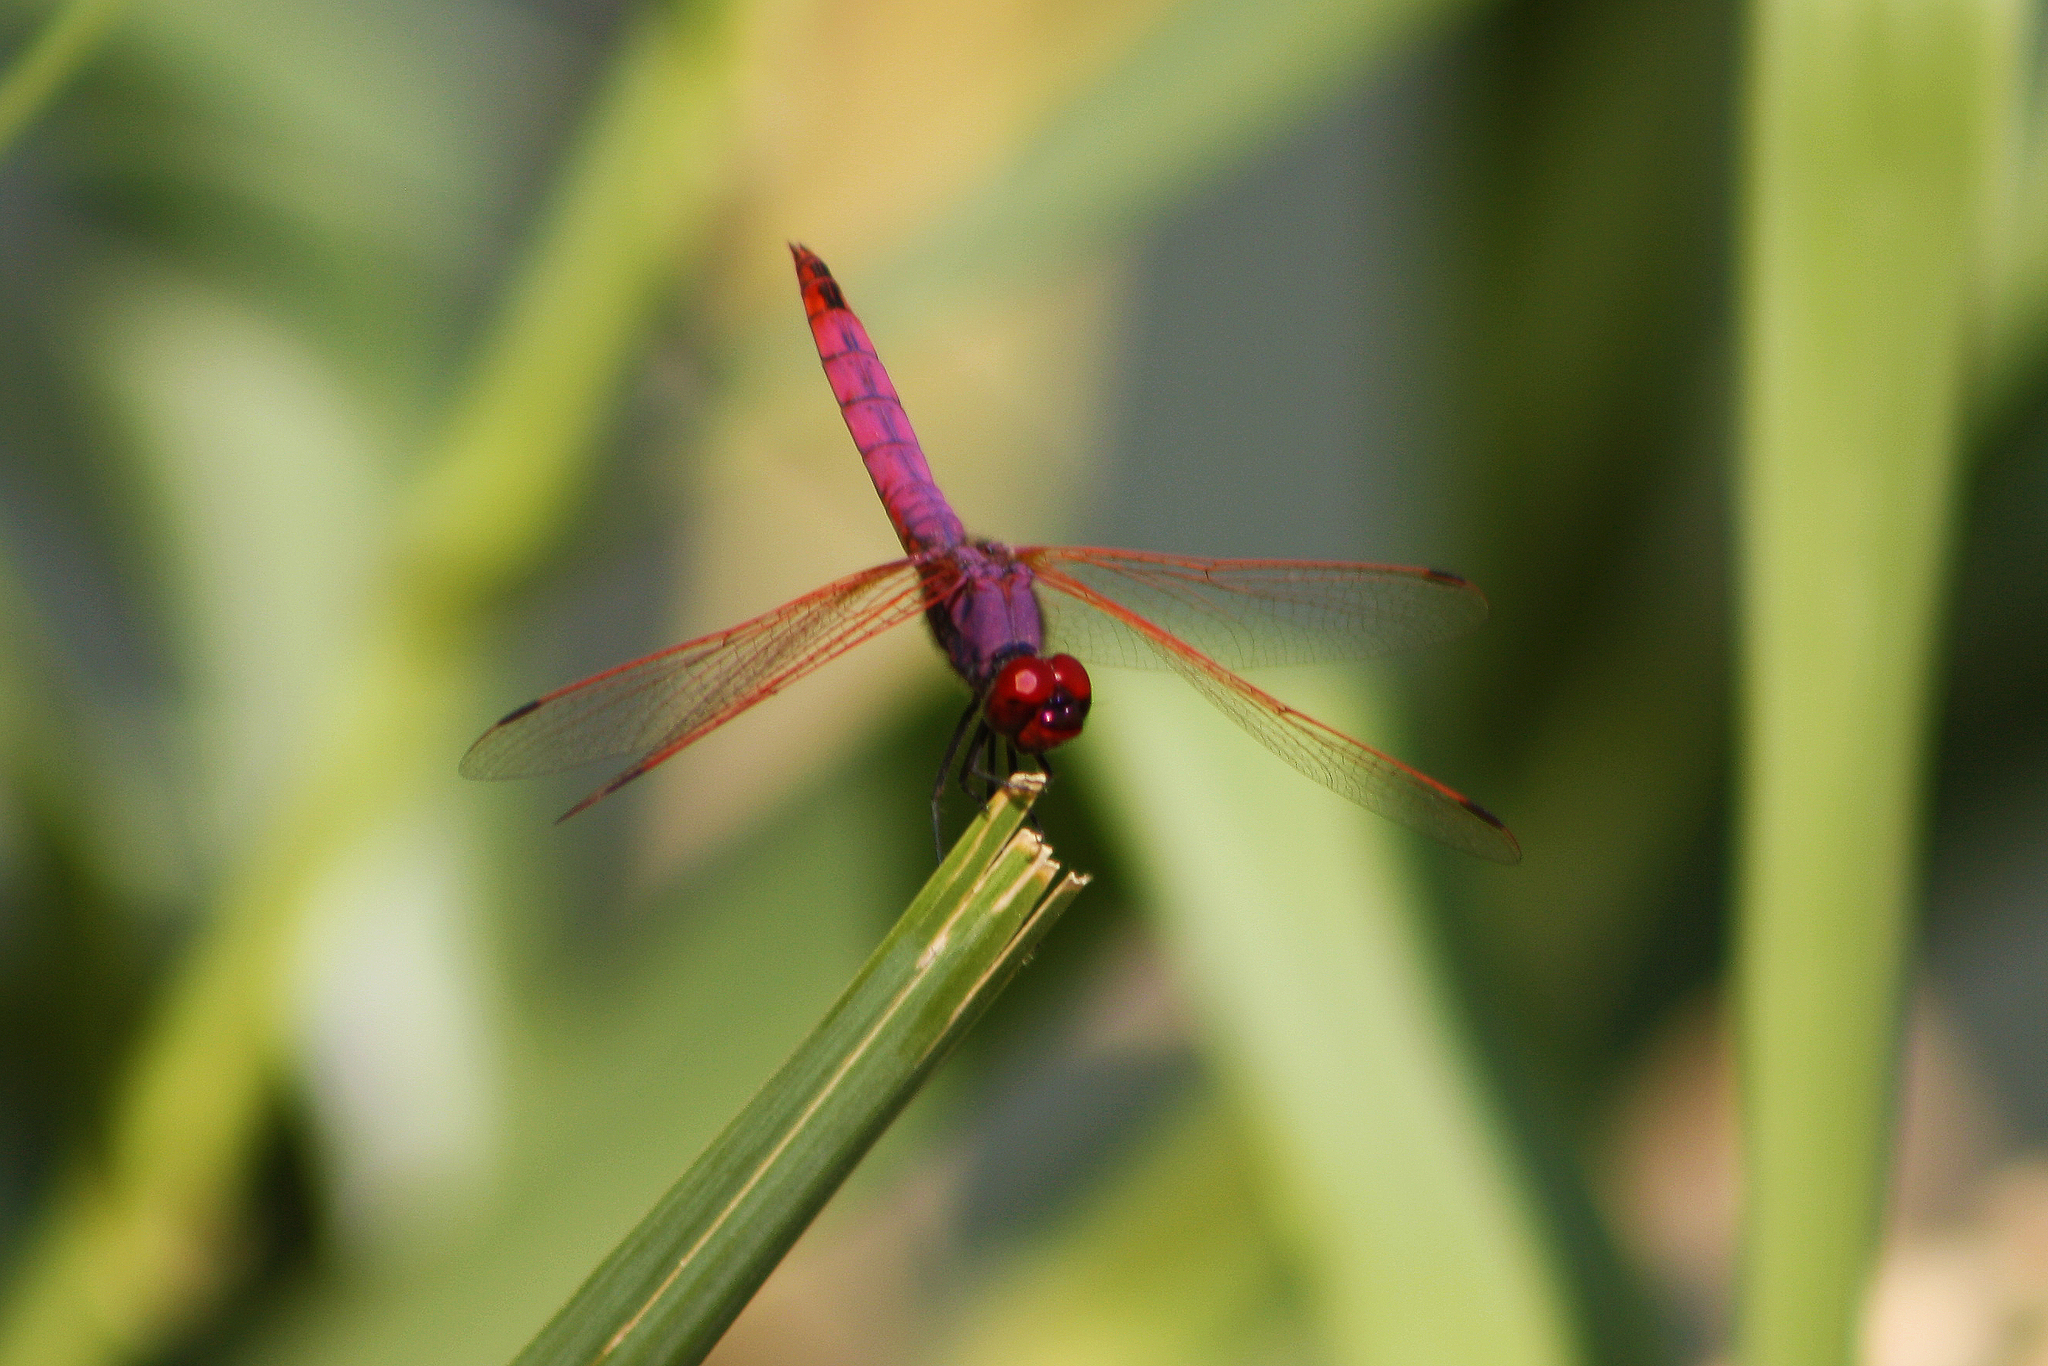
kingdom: Animalia
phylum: Arthropoda
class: Insecta
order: Odonata
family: Libellulidae
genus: Trithemis
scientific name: Trithemis annulata
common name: Violet dropwing
